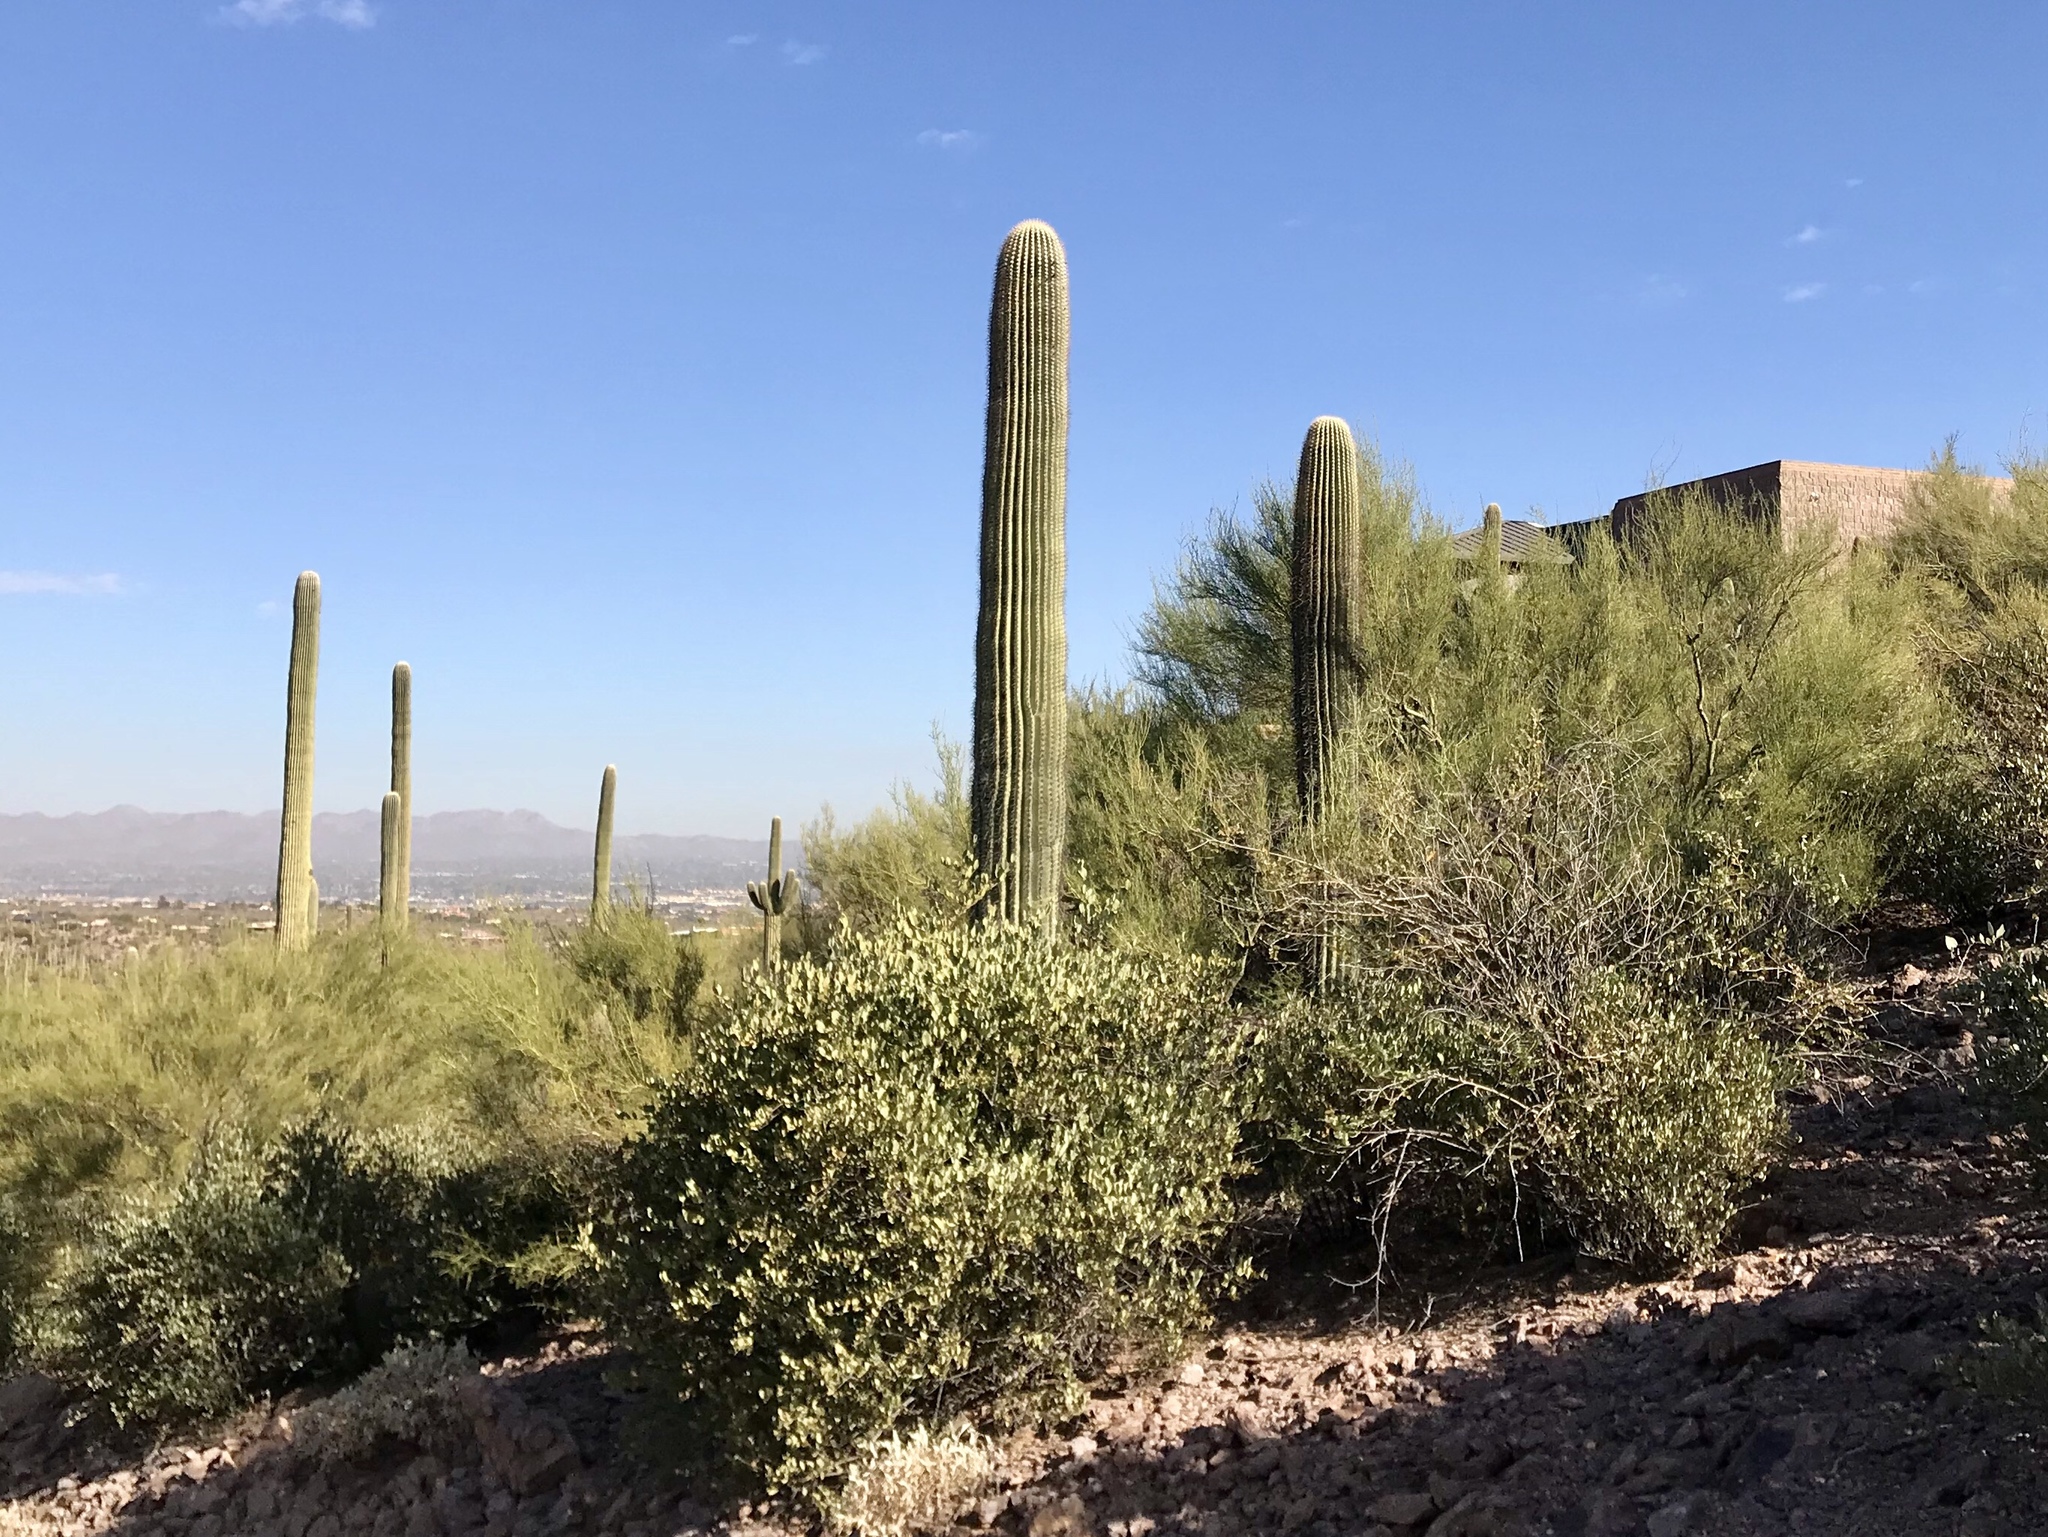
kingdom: Plantae
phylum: Tracheophyta
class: Magnoliopsida
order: Caryophyllales
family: Cactaceae
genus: Carnegiea
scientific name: Carnegiea gigantea
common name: Saguaro
